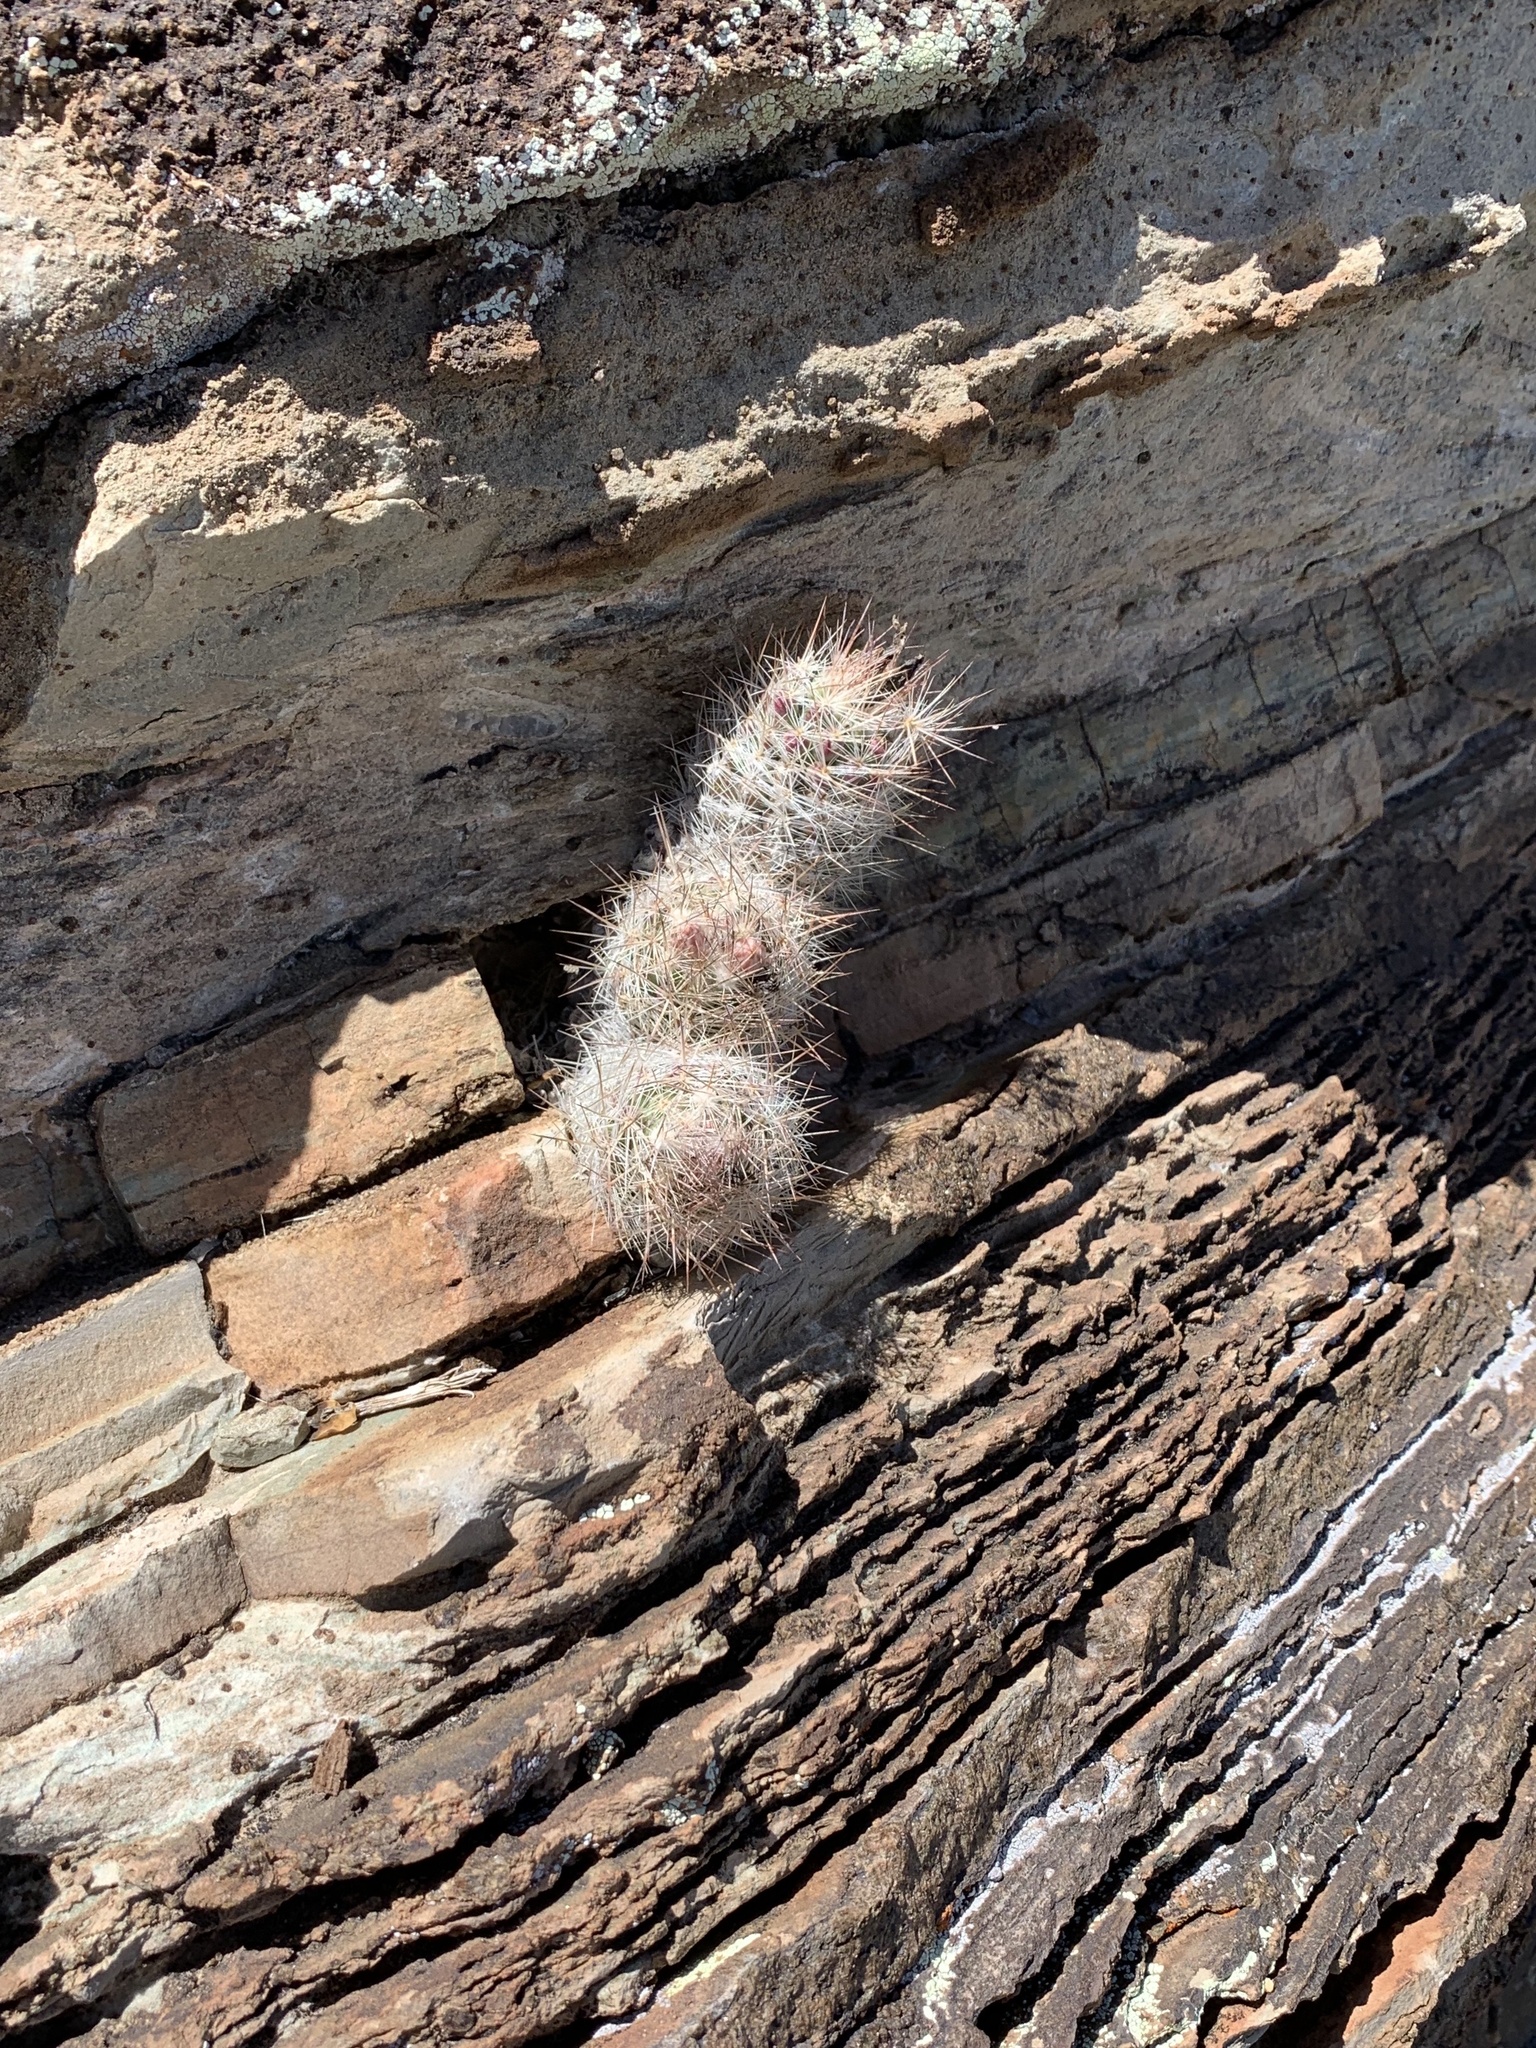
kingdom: Plantae
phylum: Tracheophyta
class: Magnoliopsida
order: Caryophyllales
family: Cactaceae
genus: Pelecyphora
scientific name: Pelecyphora tuberculosa
